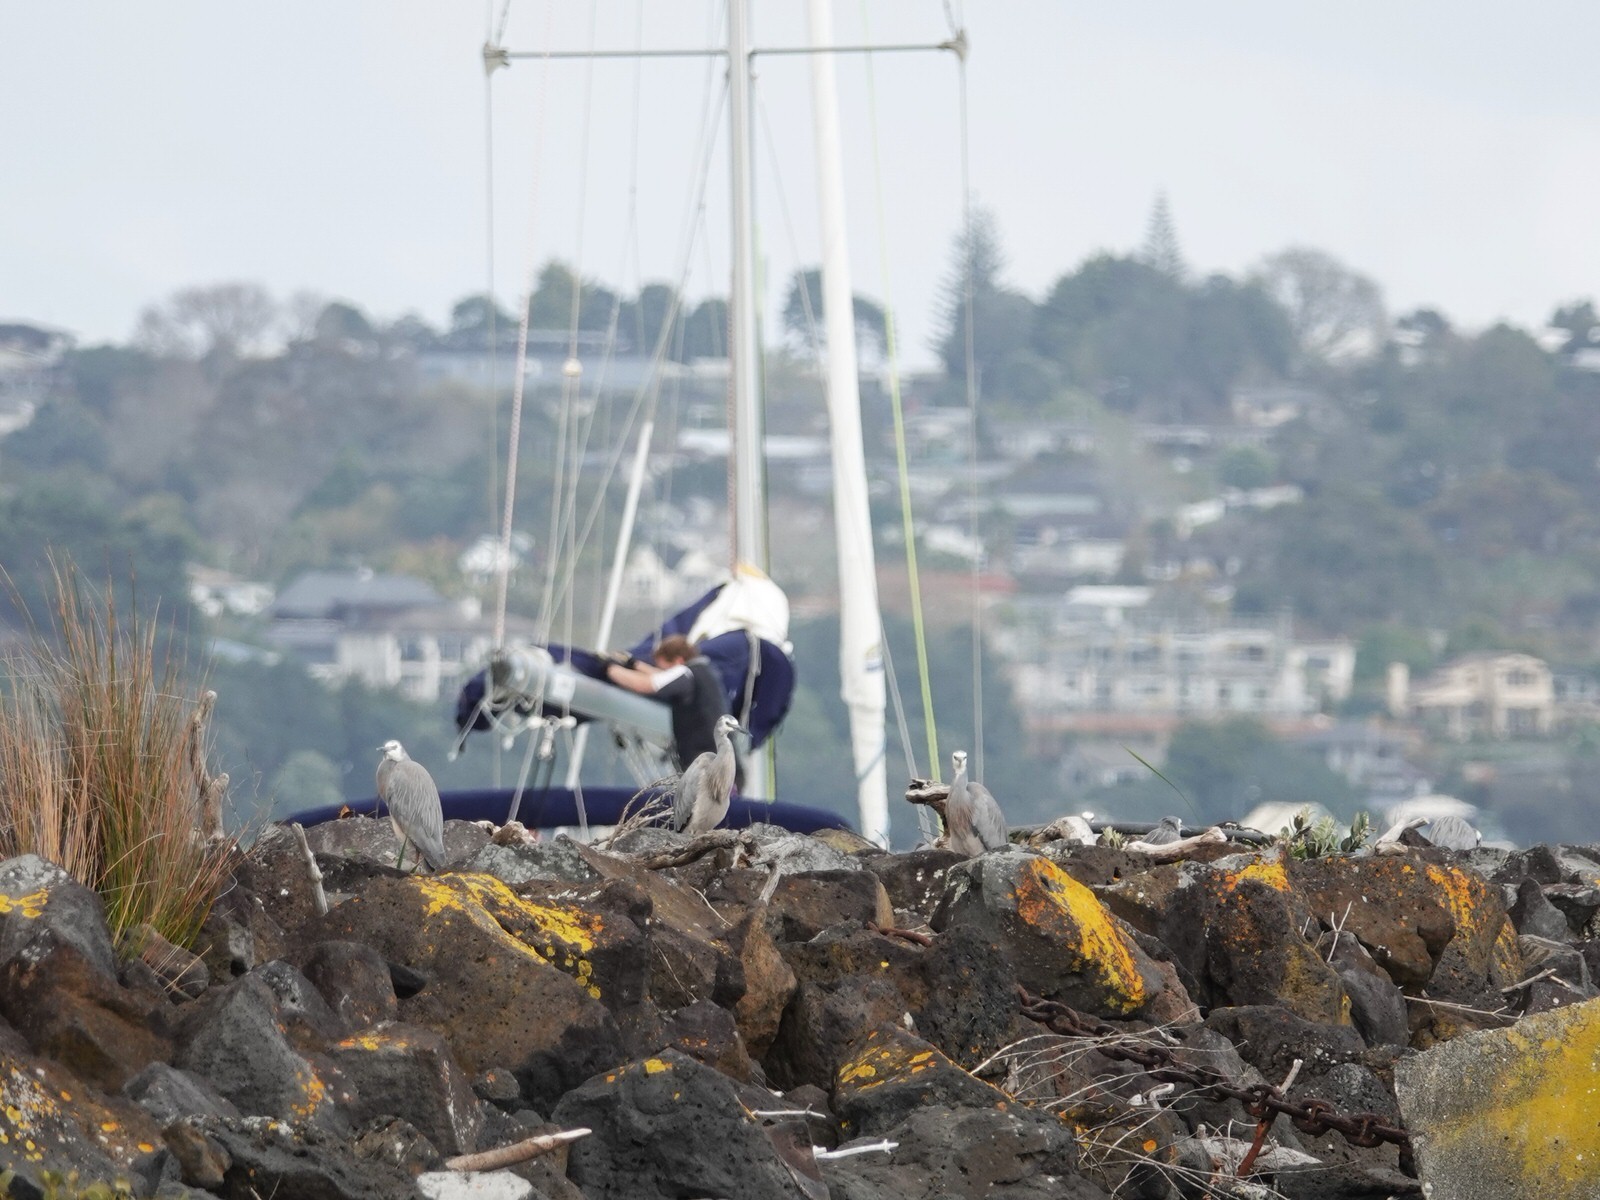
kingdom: Animalia
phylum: Chordata
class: Aves
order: Pelecaniformes
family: Ardeidae
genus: Egretta
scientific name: Egretta novaehollandiae
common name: White-faced heron
